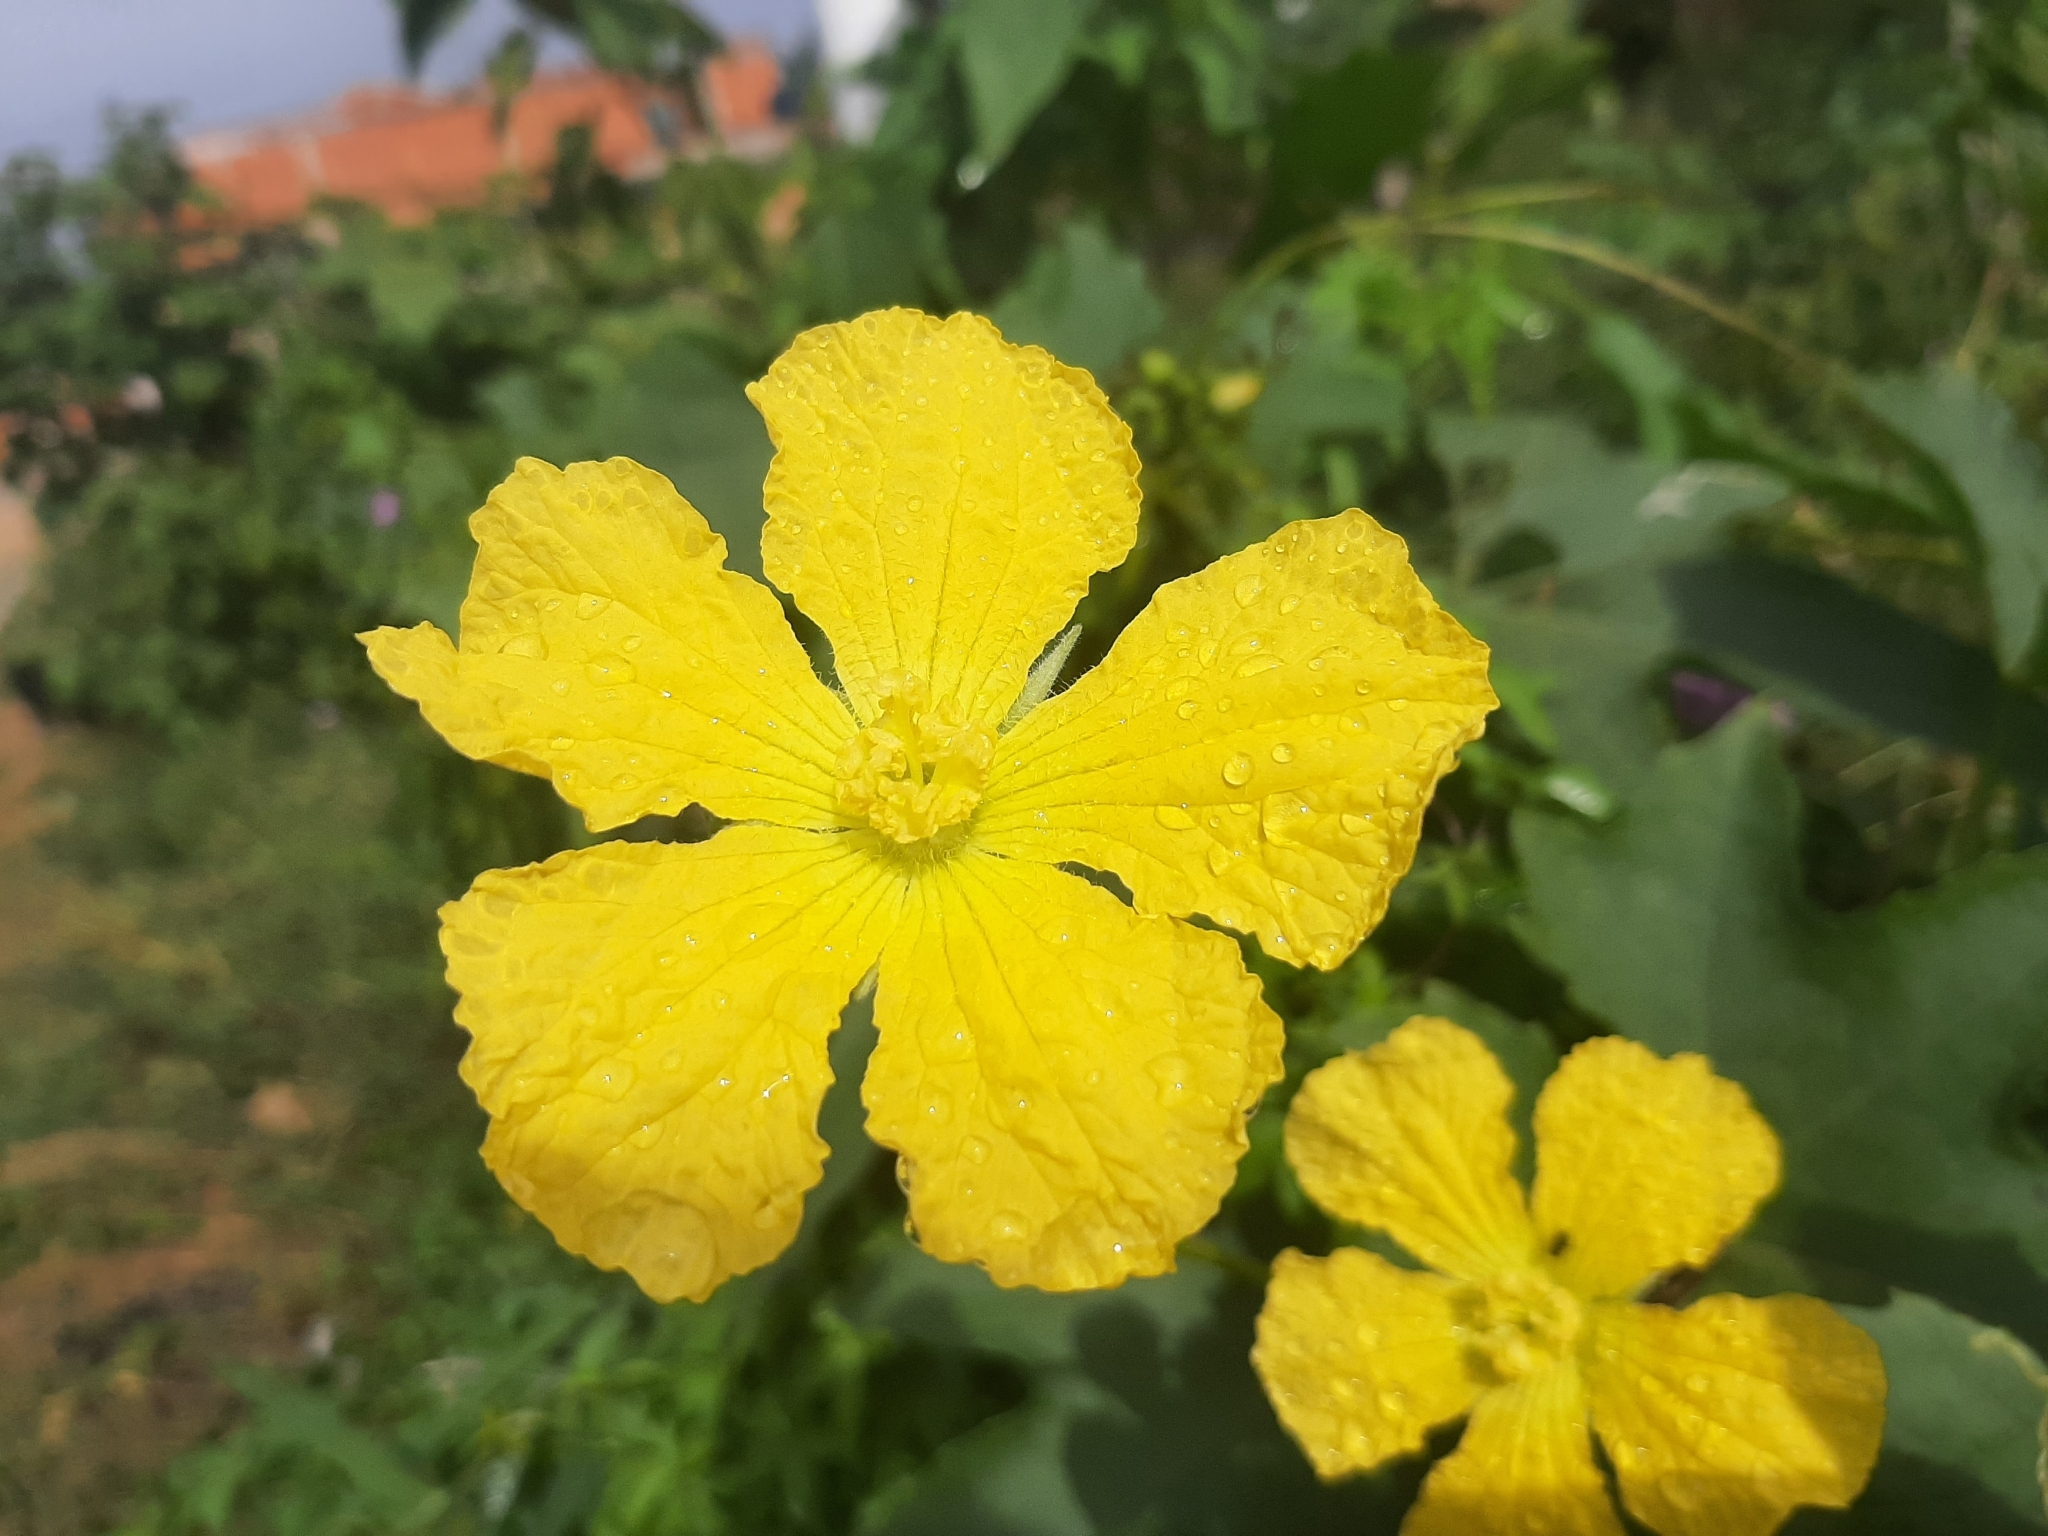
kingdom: Plantae
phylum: Tracheophyta
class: Magnoliopsida
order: Cucurbitales
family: Cucurbitaceae
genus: Luffa
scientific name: Luffa aegyptiaca
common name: Sponge gourd
